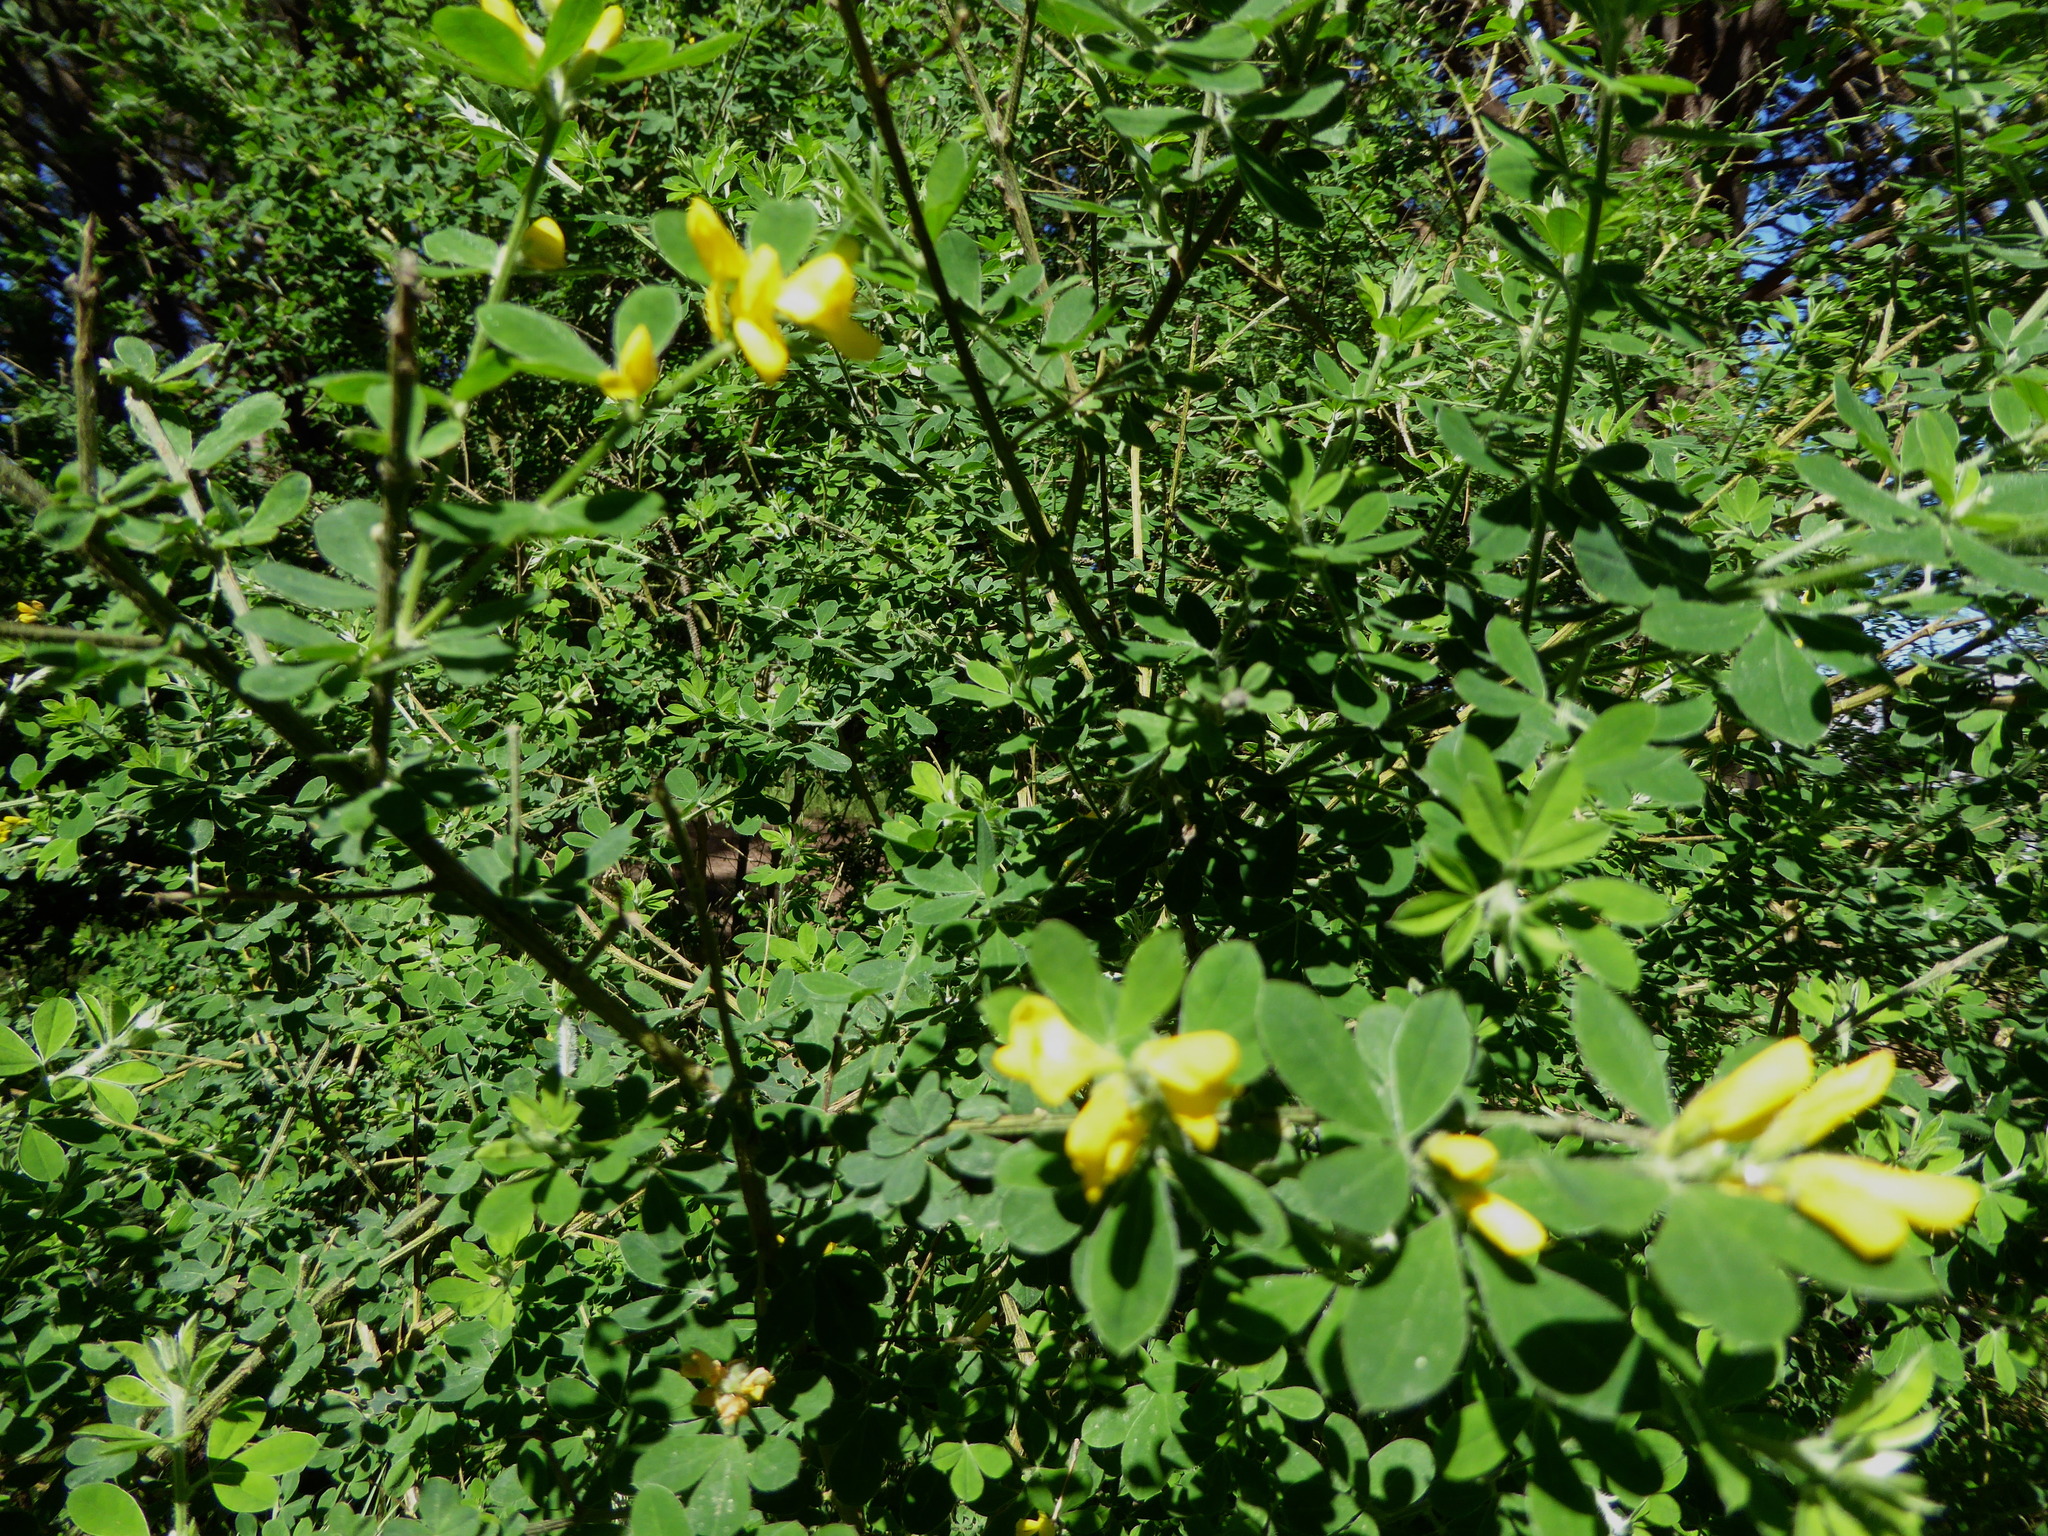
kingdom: Plantae
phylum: Tracheophyta
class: Magnoliopsida
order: Fabales
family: Fabaceae
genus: Genista
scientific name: Genista monspessulana
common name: Montpellier broom
